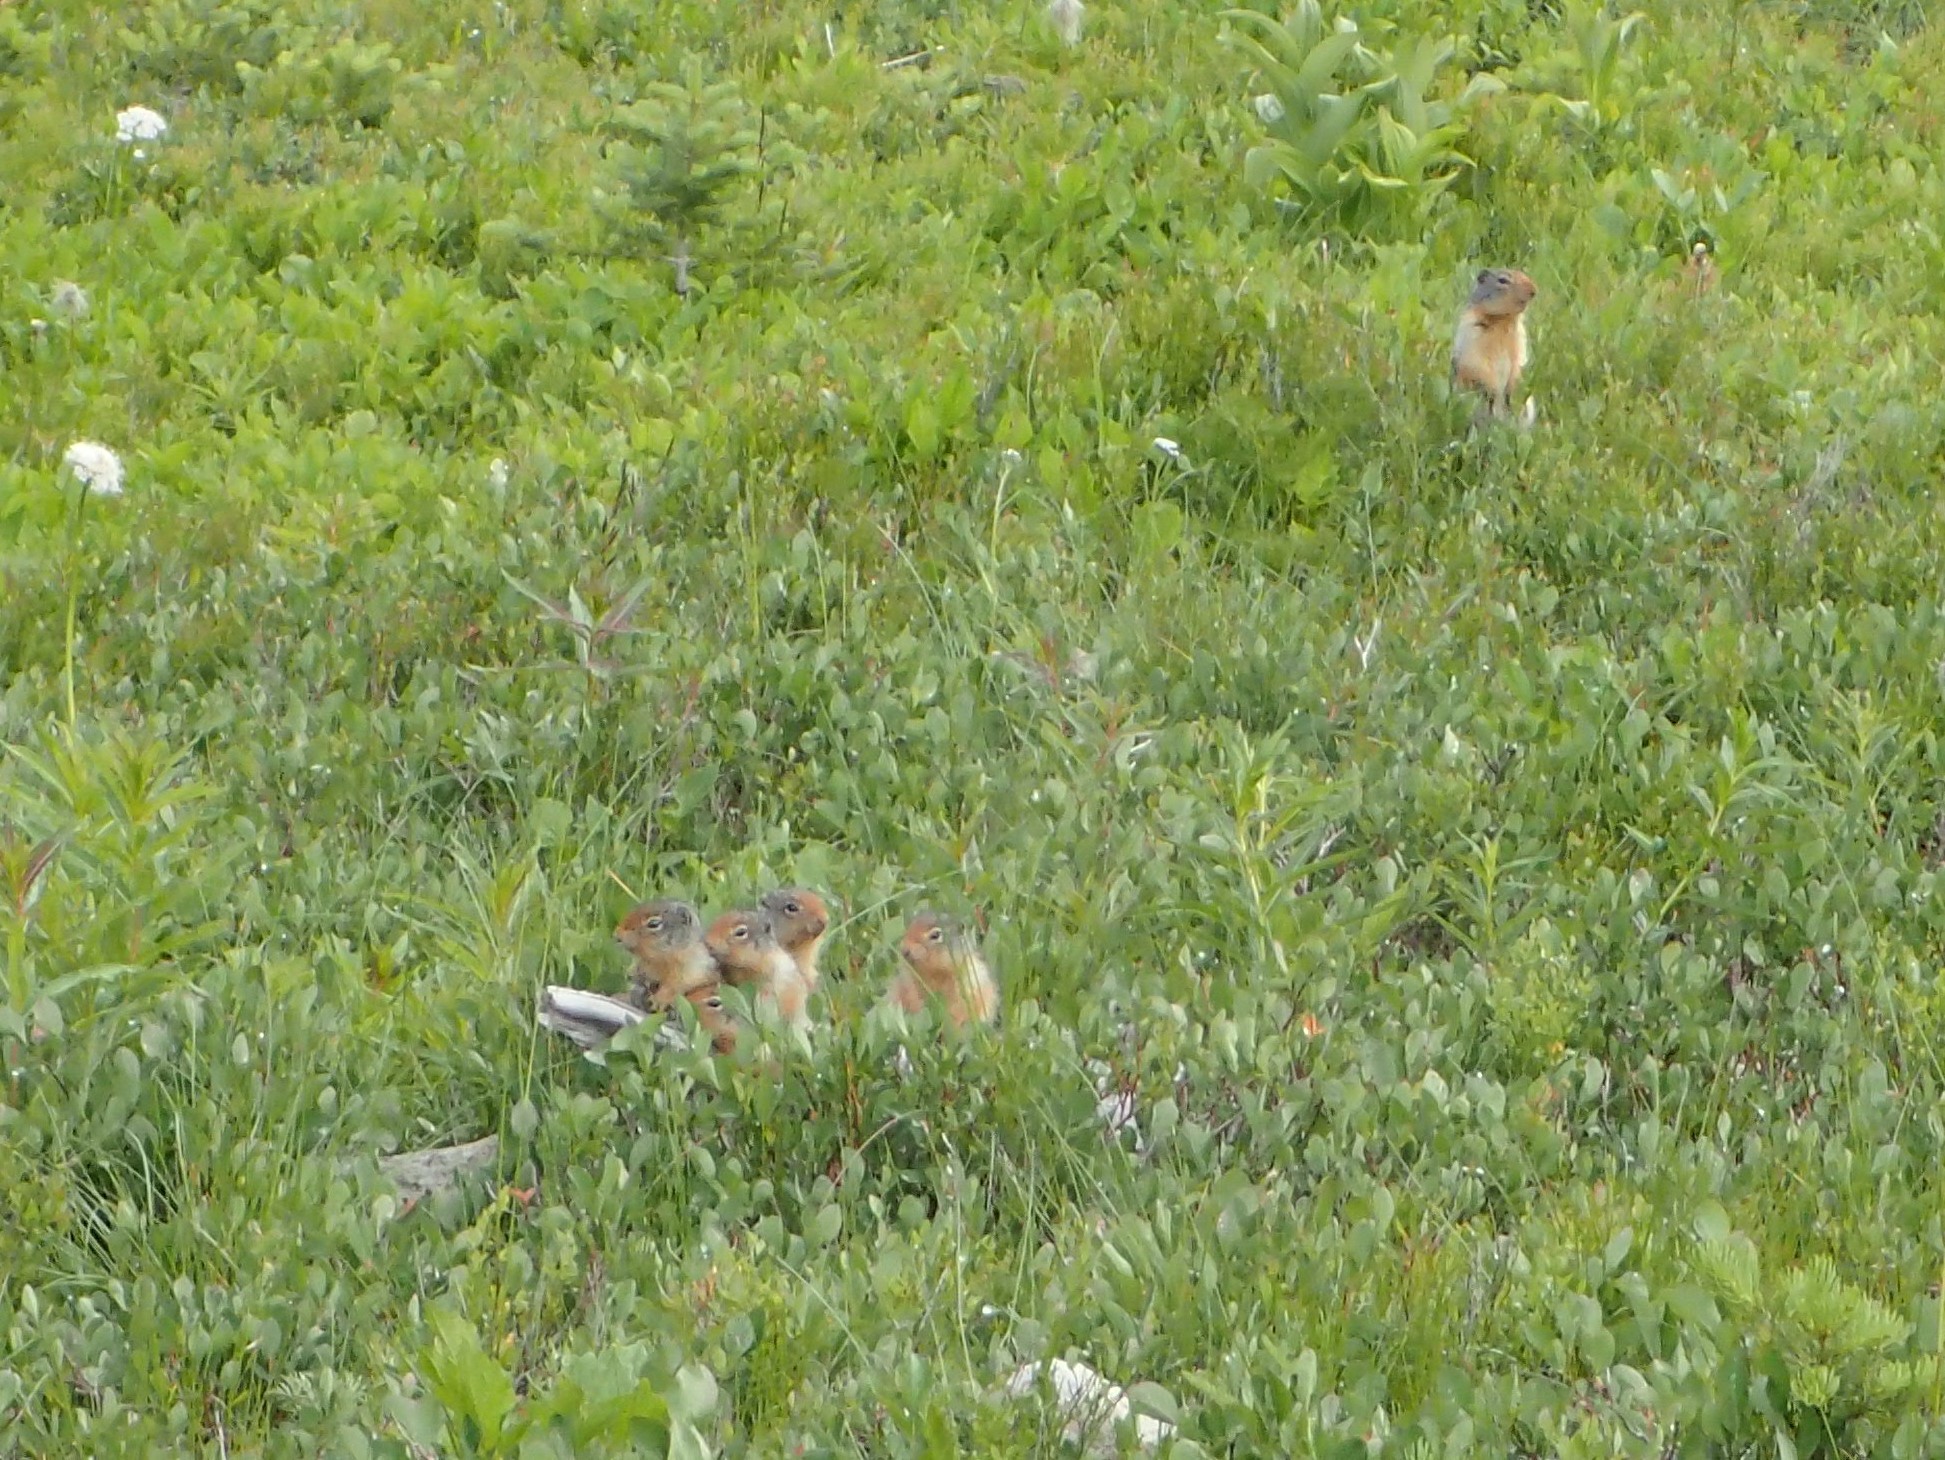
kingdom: Animalia
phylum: Chordata
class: Mammalia
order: Rodentia
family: Sciuridae
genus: Urocitellus
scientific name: Urocitellus columbianus
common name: Columbian ground squirrel
